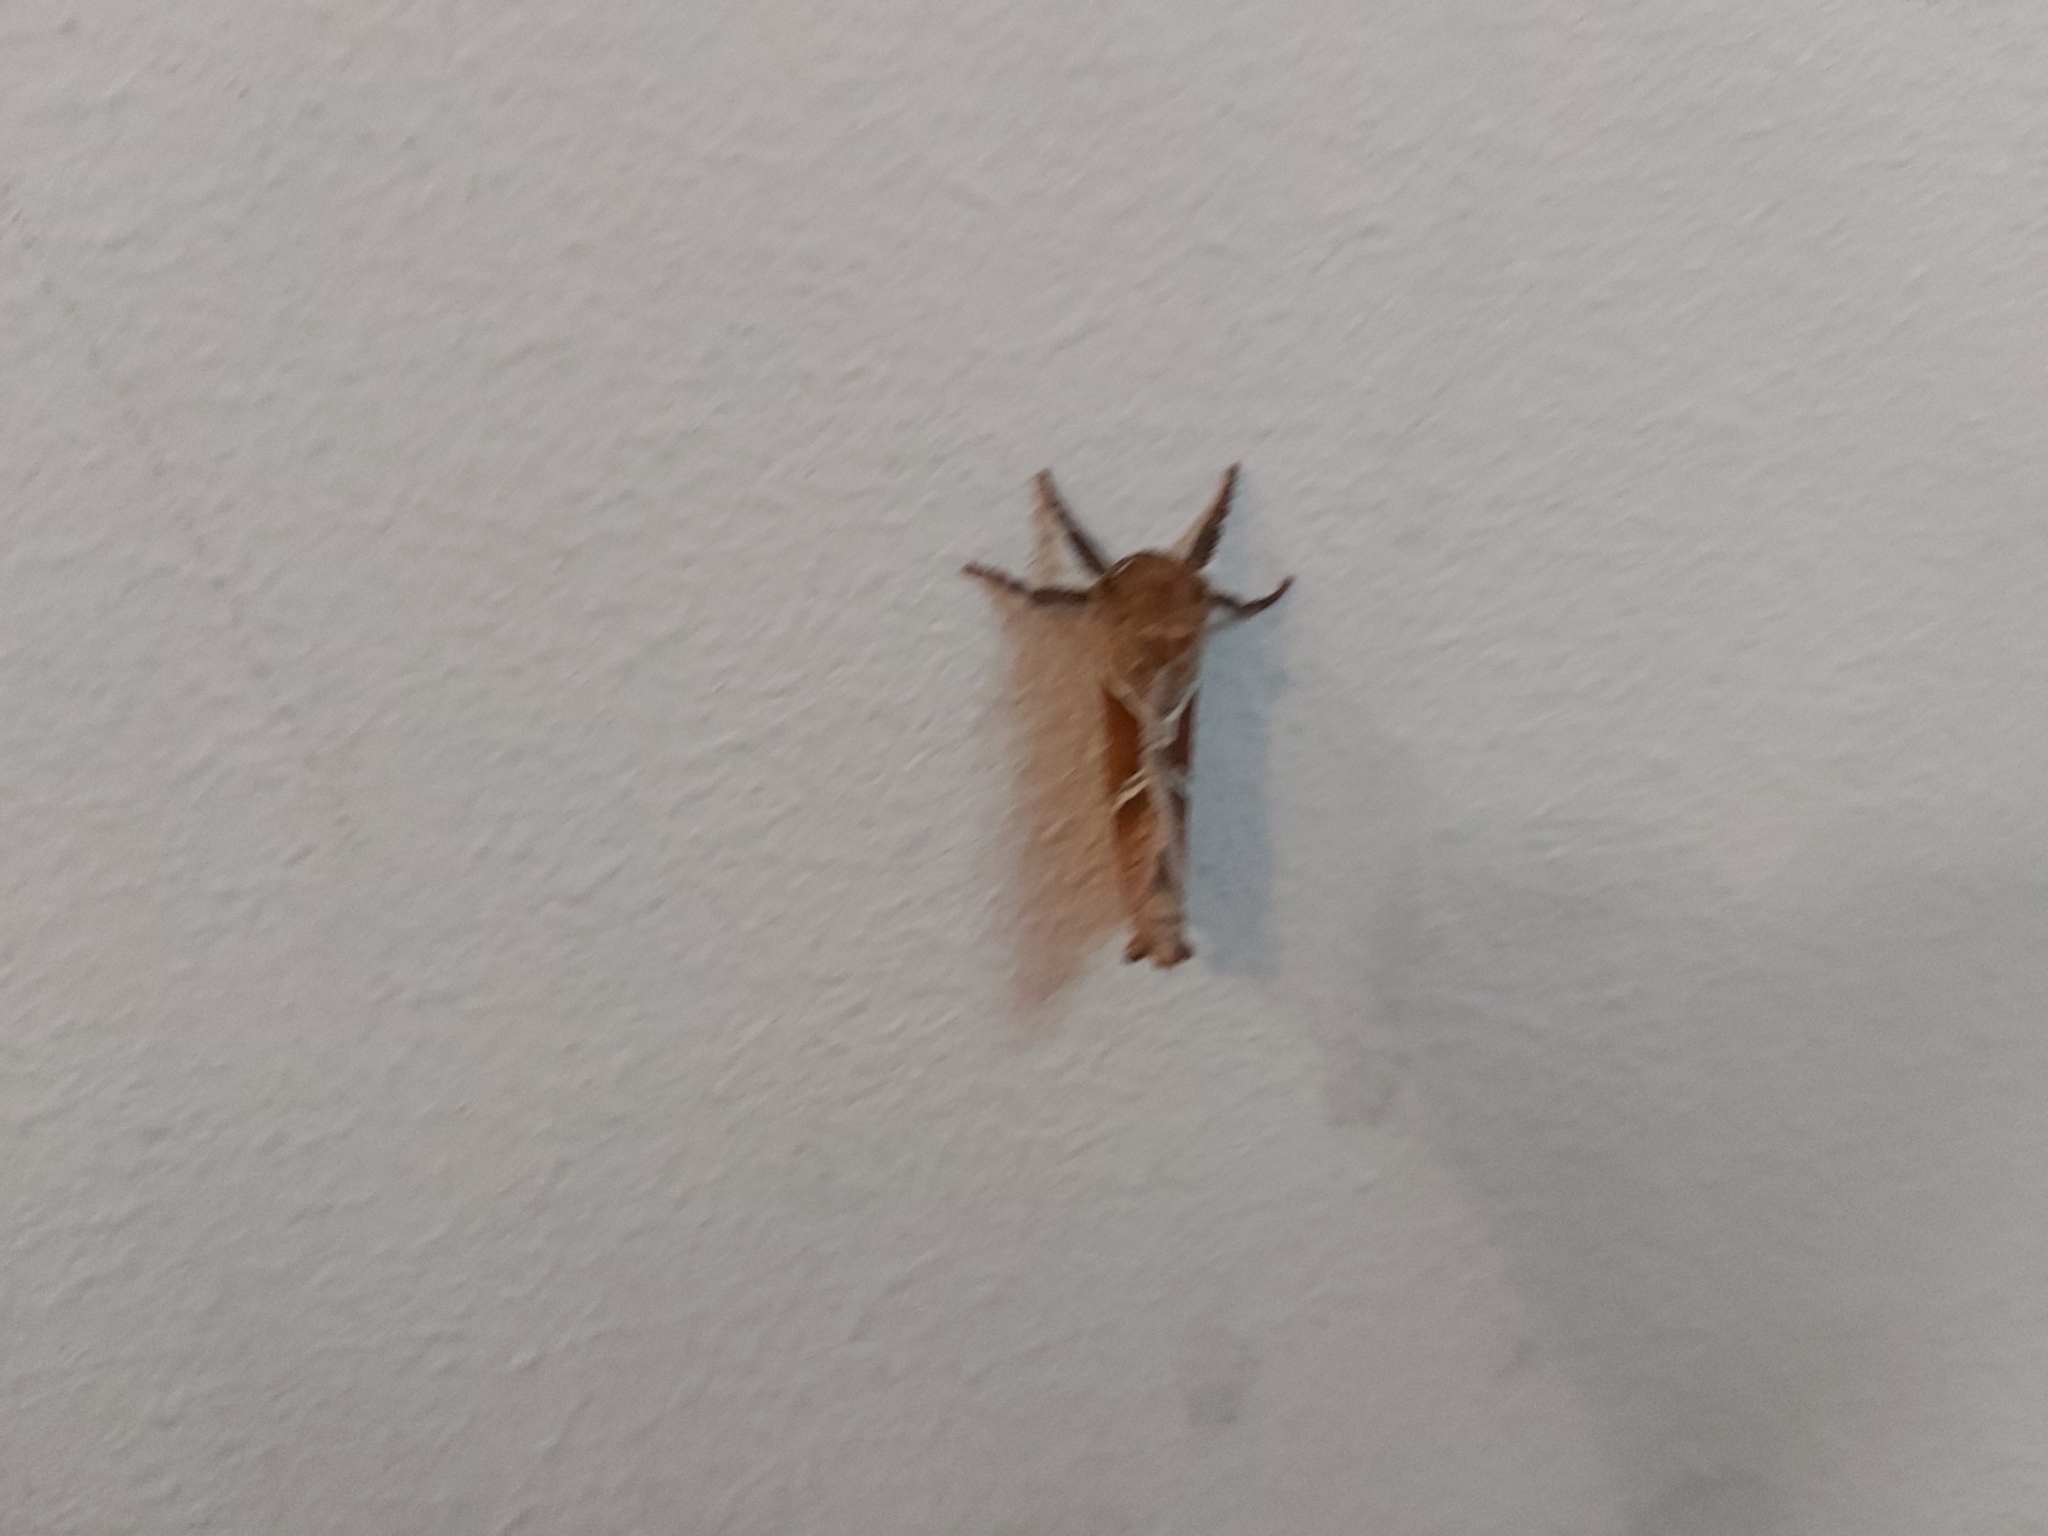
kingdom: Animalia
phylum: Arthropoda
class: Insecta
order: Lepidoptera
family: Hepialidae
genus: Triodia
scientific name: Triodia sylvina
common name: Orange swift
